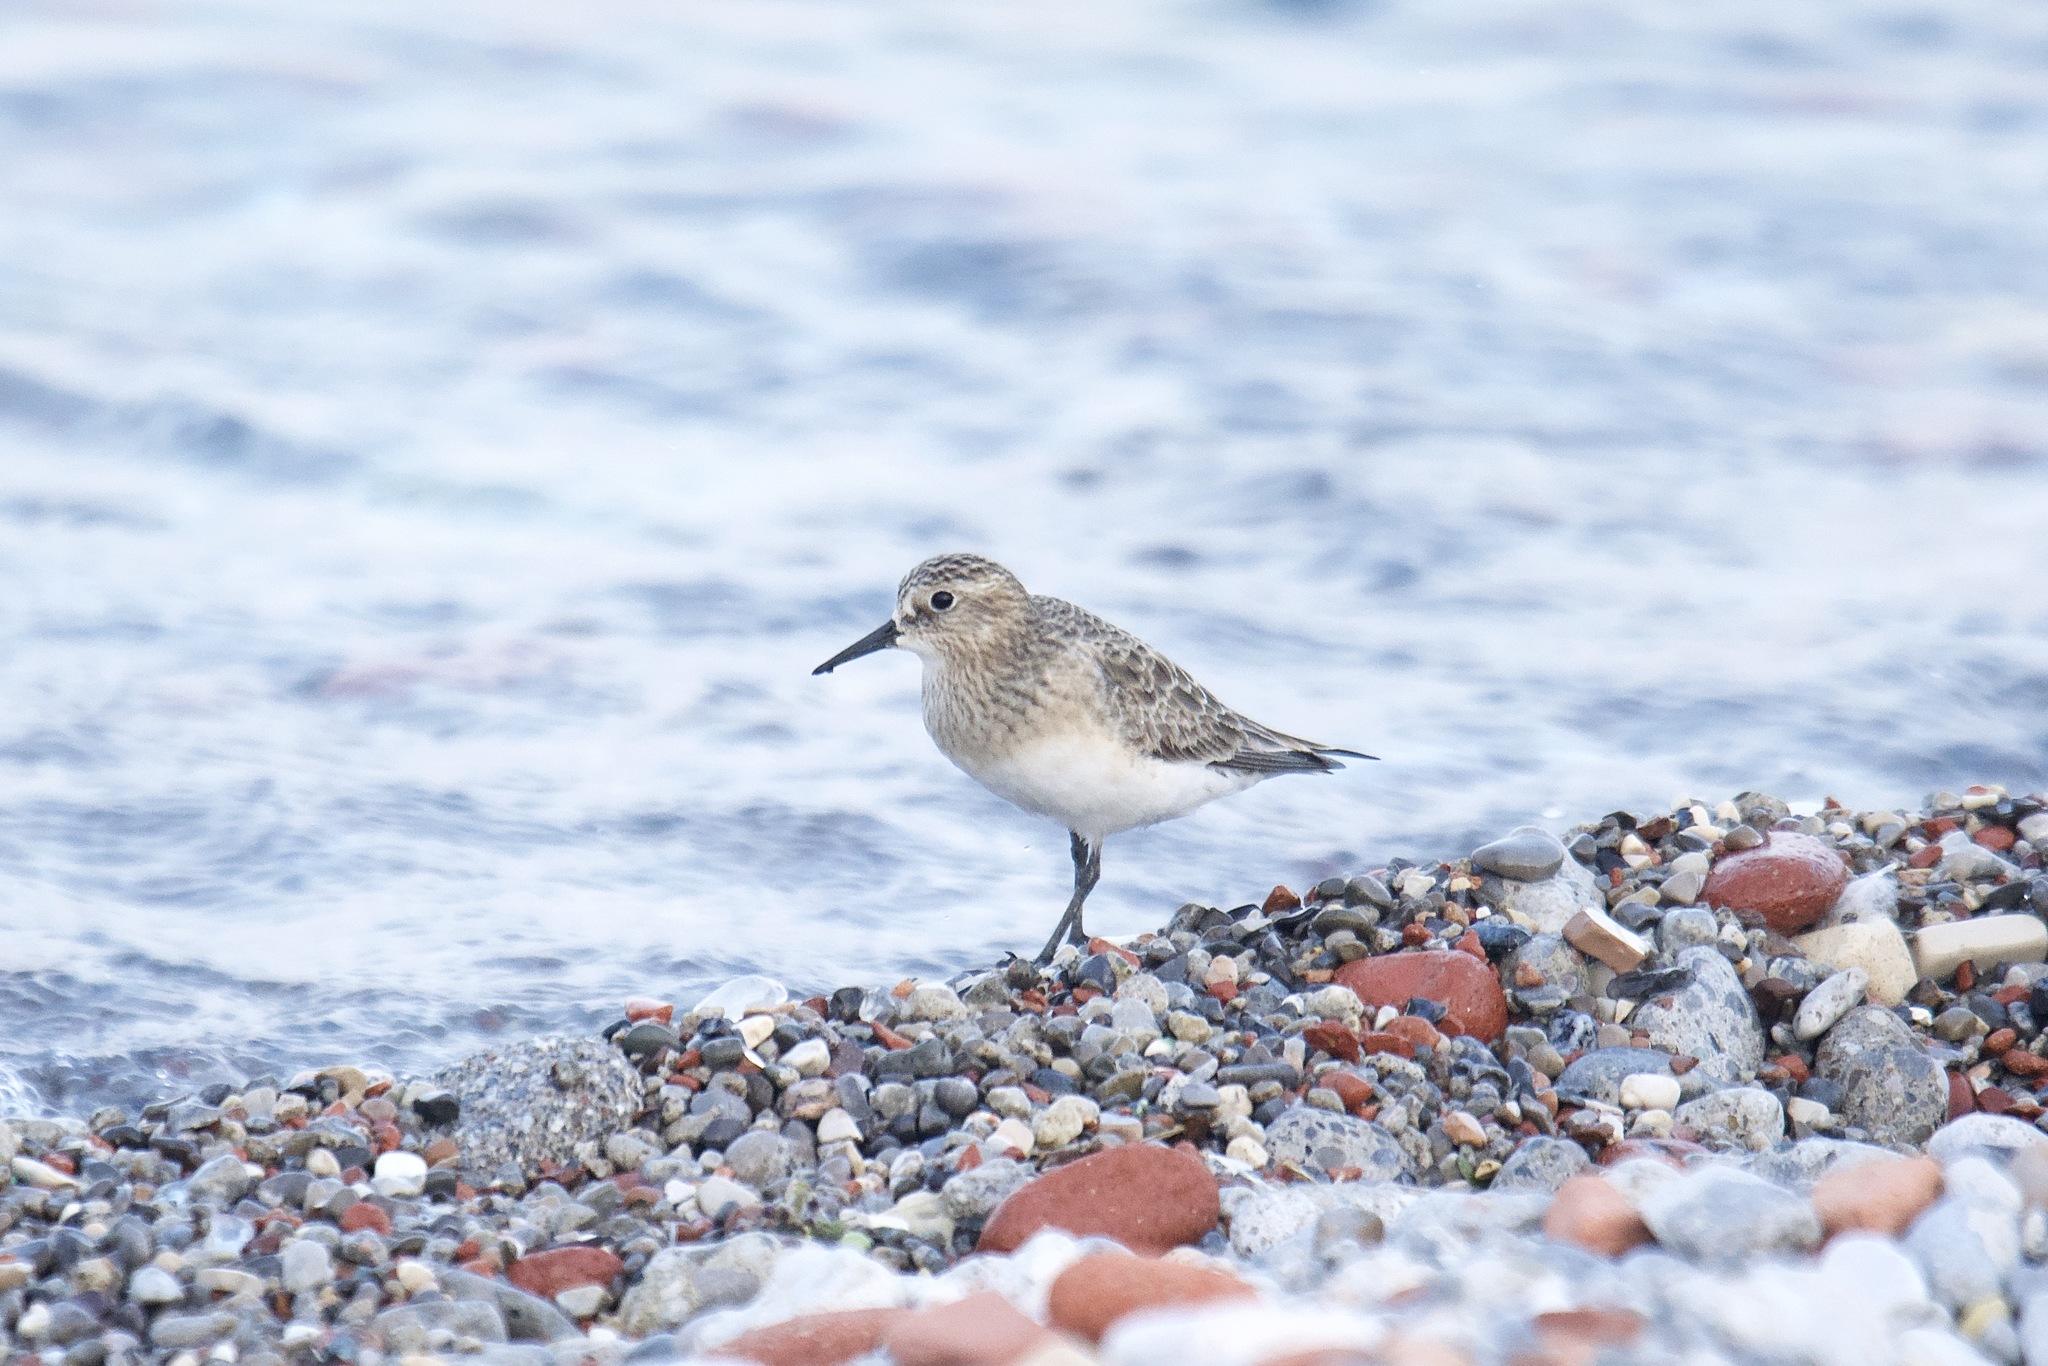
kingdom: Animalia
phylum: Chordata
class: Aves
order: Charadriiformes
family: Scolopacidae
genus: Calidris
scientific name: Calidris bairdii
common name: Baird's sandpiper
